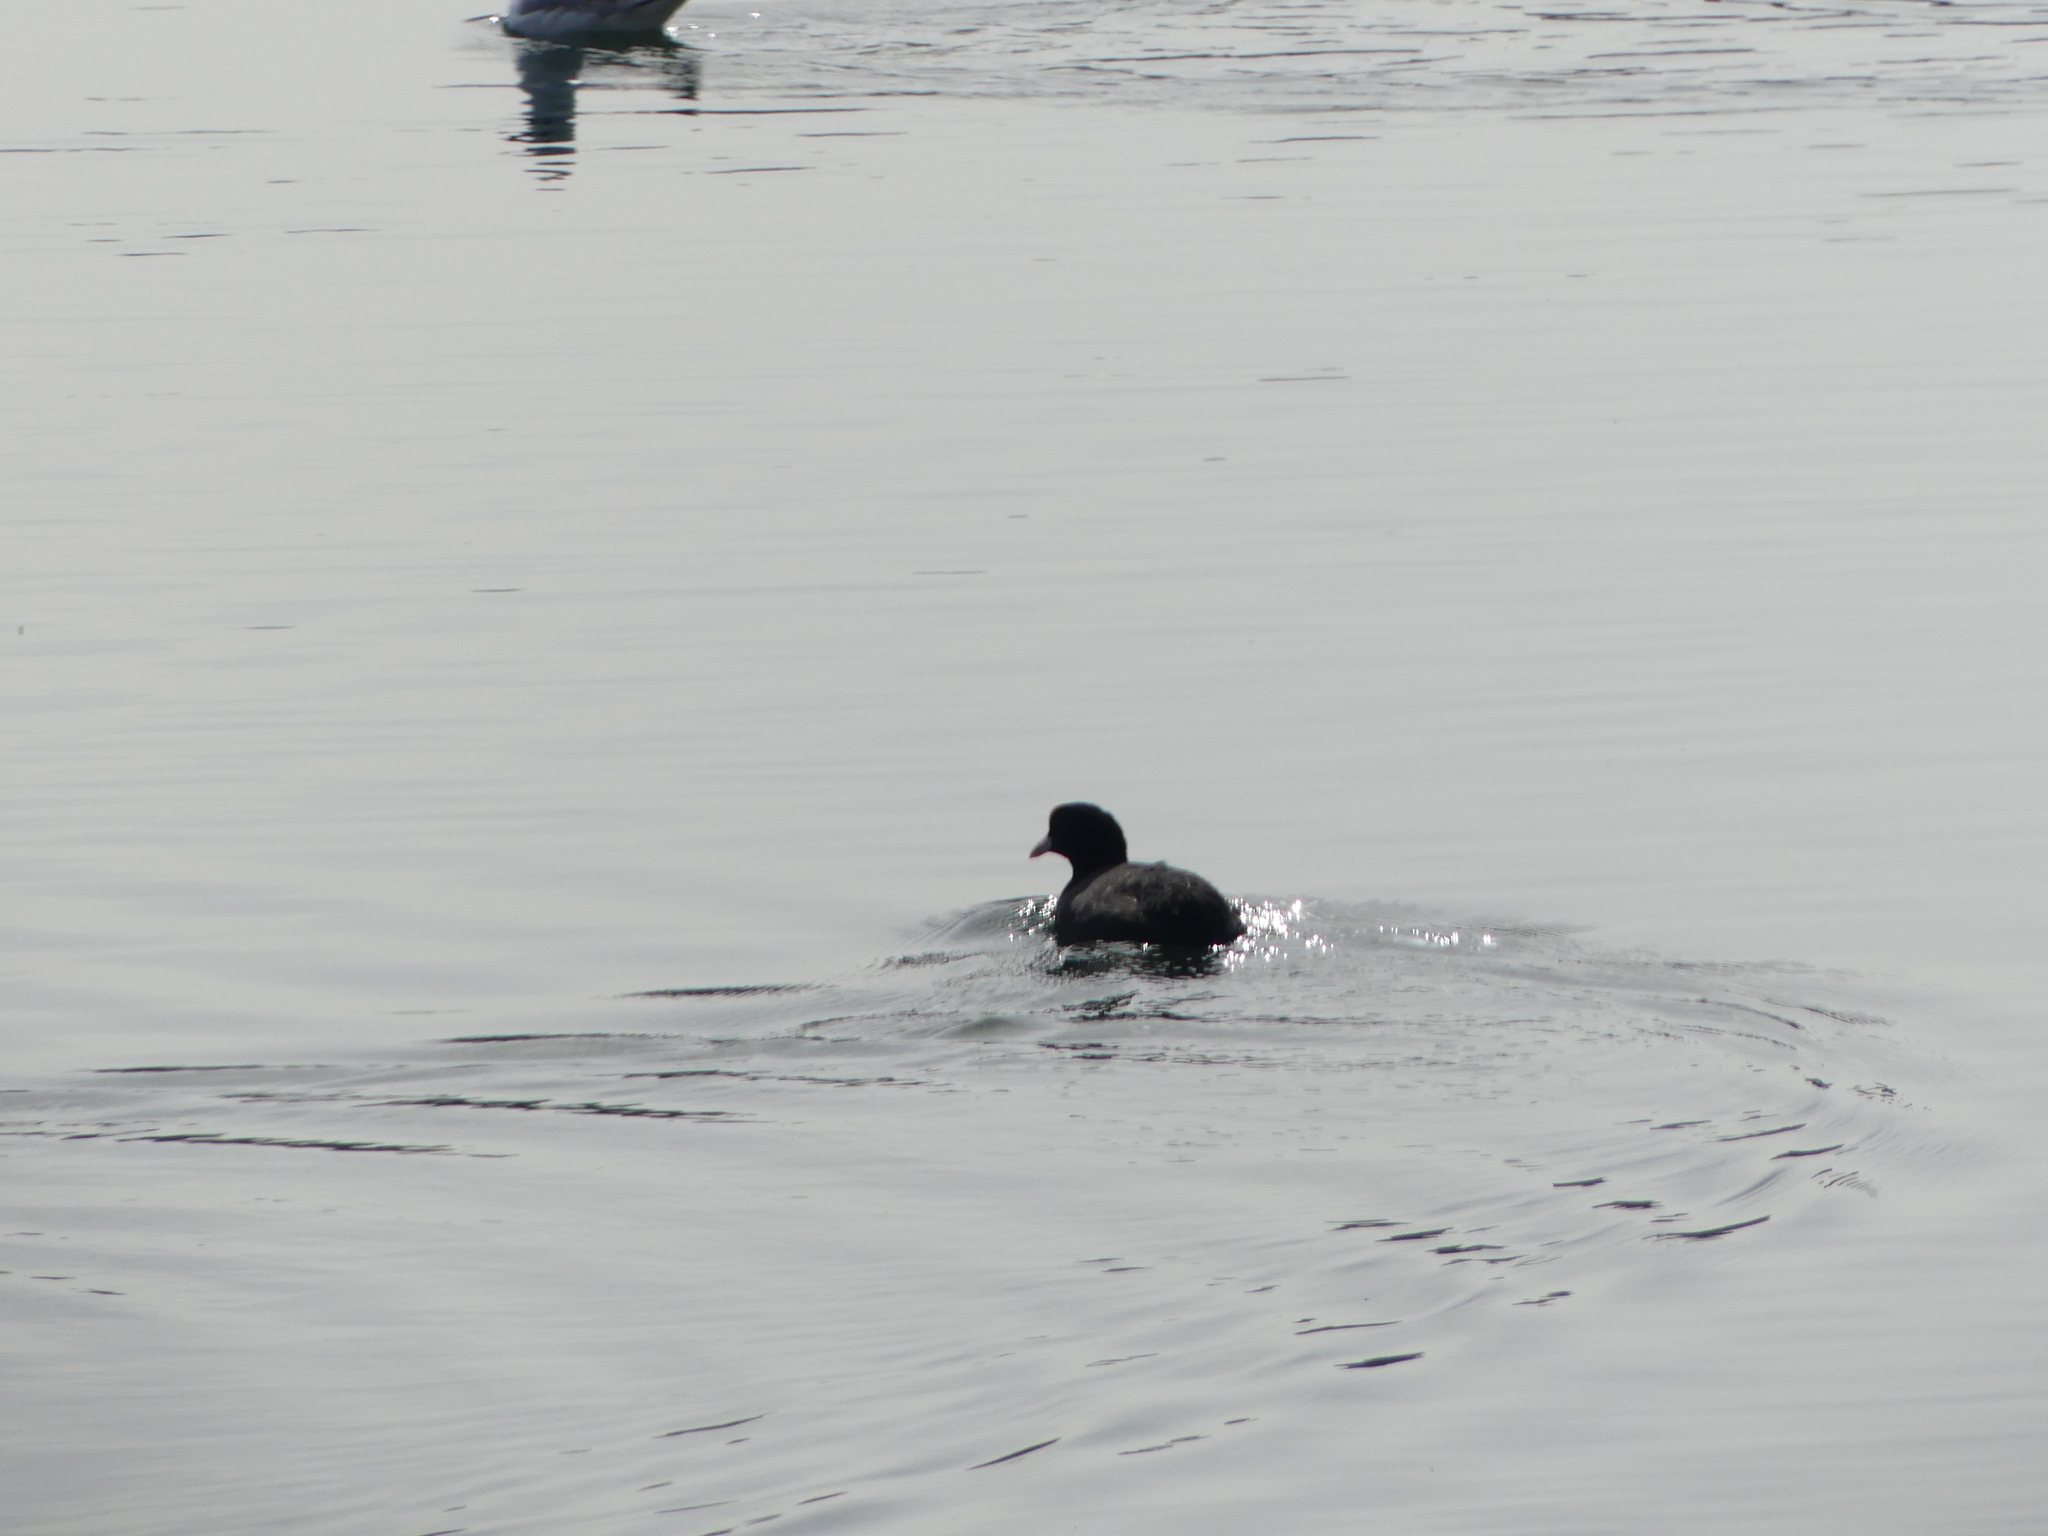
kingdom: Animalia
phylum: Chordata
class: Aves
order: Gruiformes
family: Rallidae
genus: Fulica
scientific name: Fulica atra
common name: Eurasian coot
